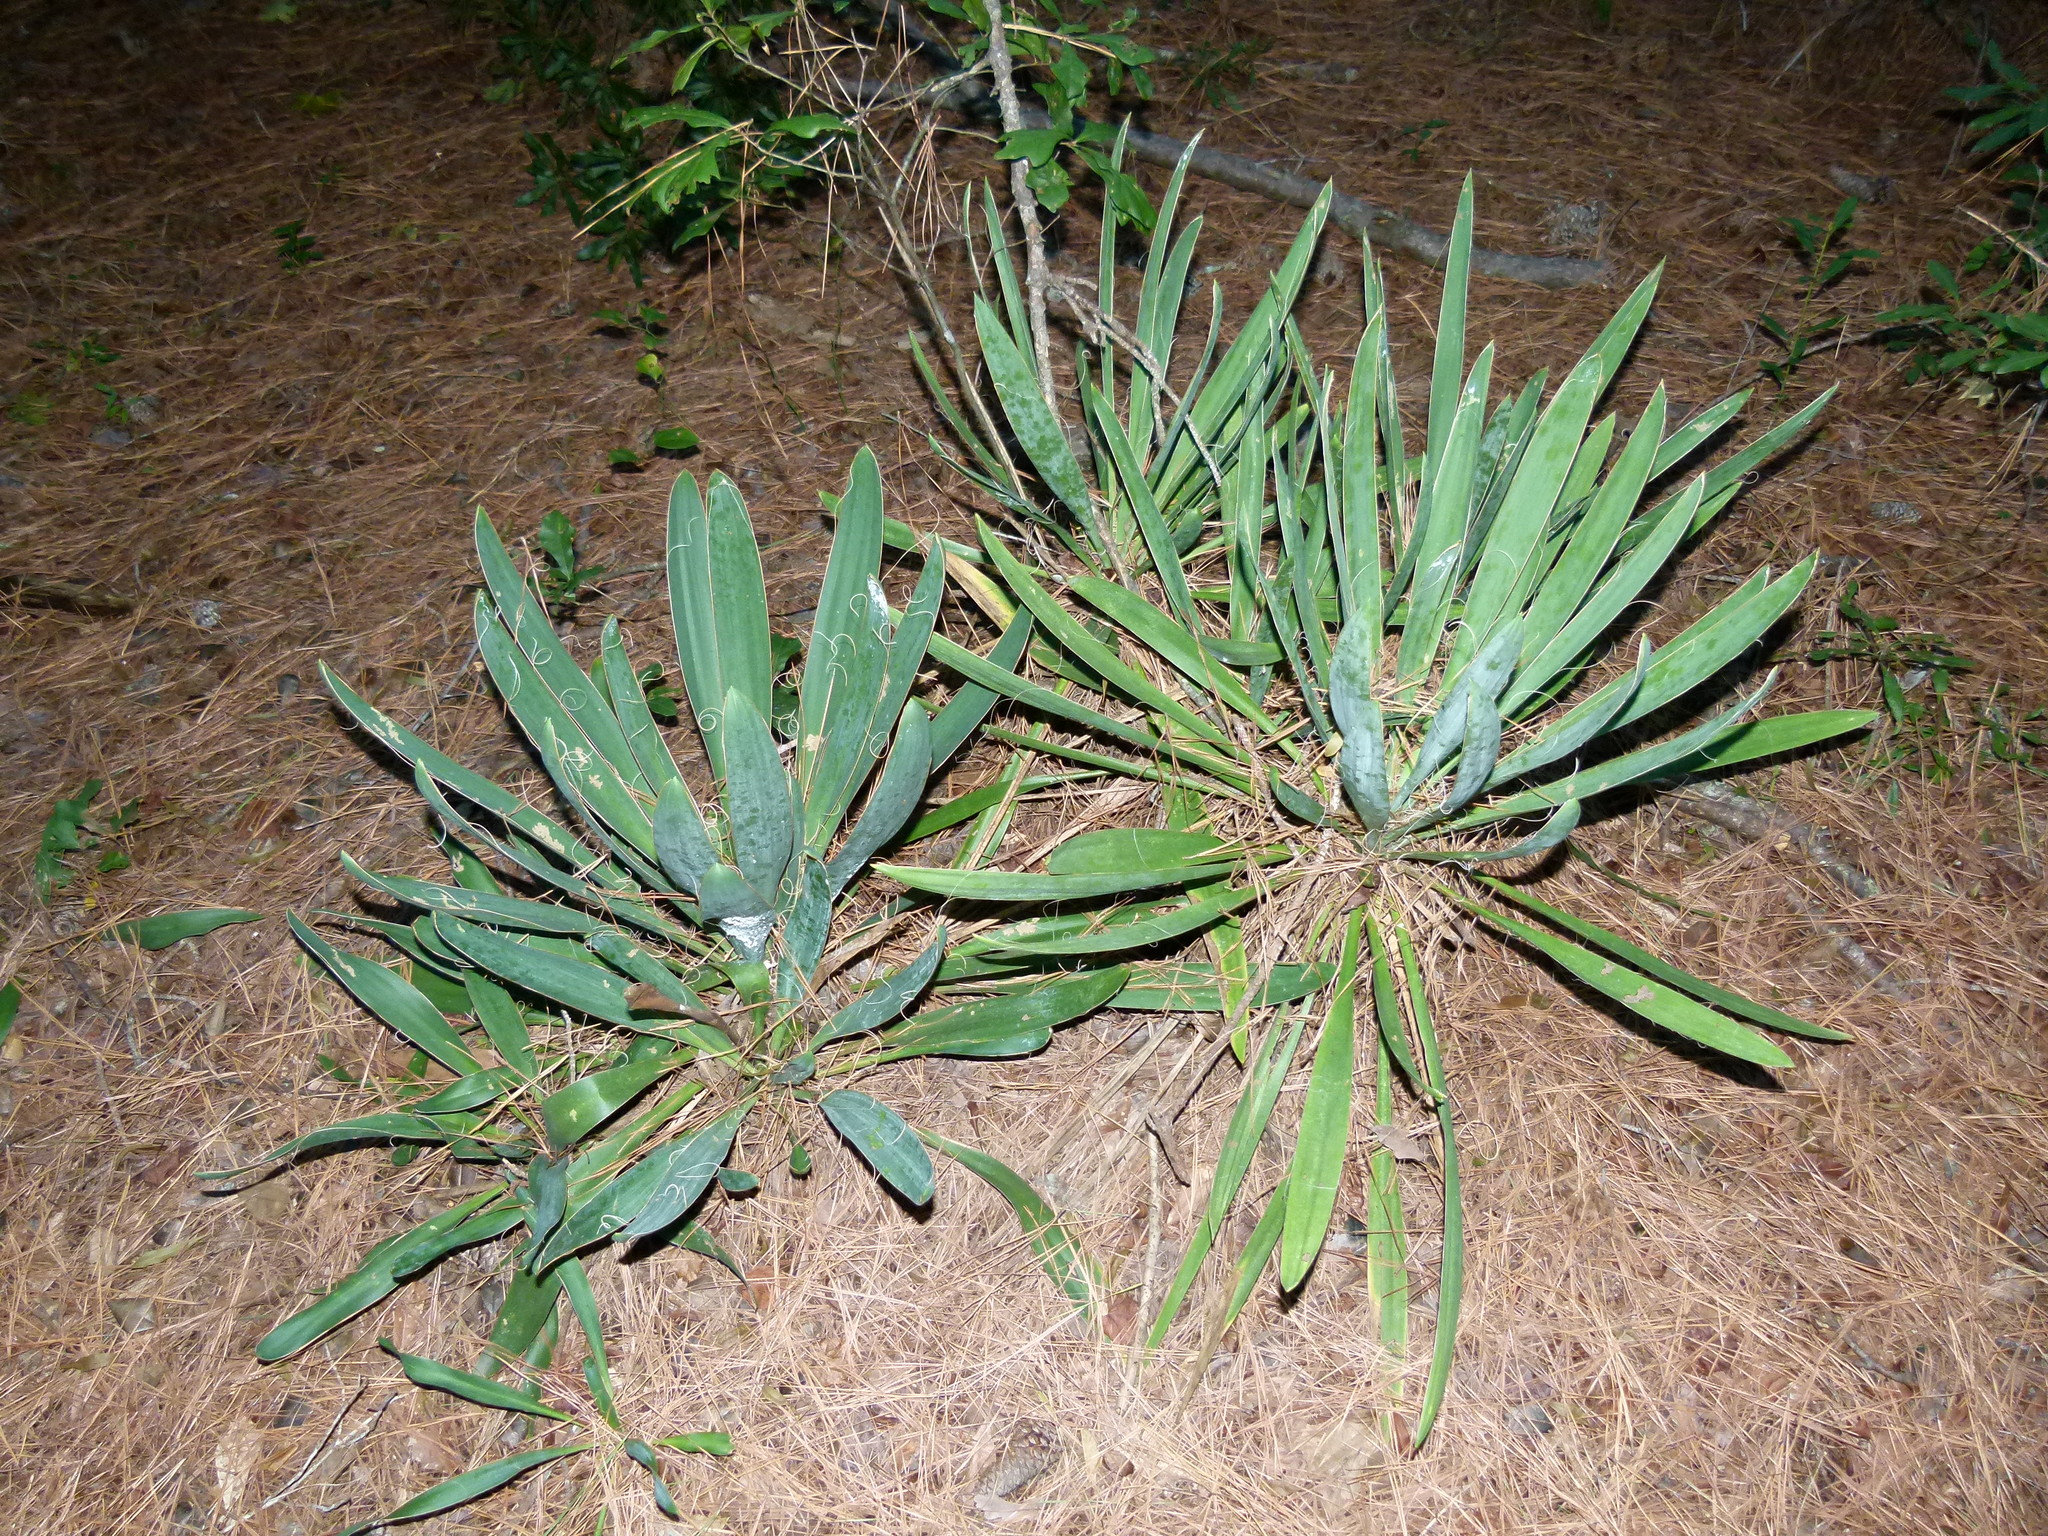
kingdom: Plantae
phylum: Tracheophyta
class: Liliopsida
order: Asparagales
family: Asparagaceae
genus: Yucca
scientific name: Yucca filamentosa
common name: Adam's-needle
